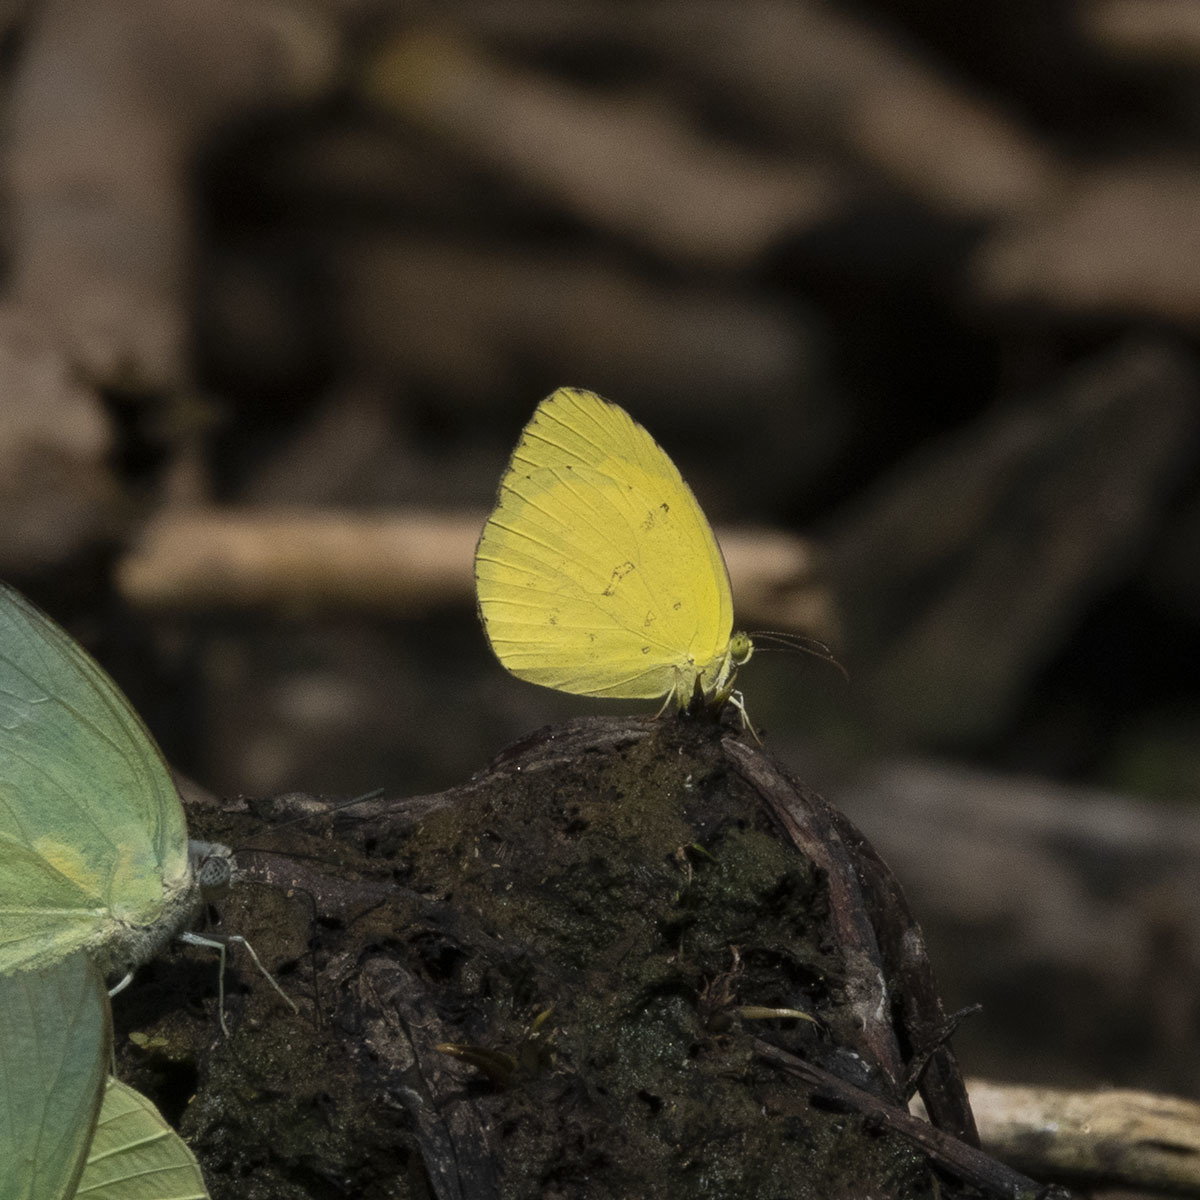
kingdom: Animalia
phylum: Arthropoda
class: Insecta
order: Lepidoptera
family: Pieridae
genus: Eurema
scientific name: Eurema brigitta
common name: Small grass yellow
